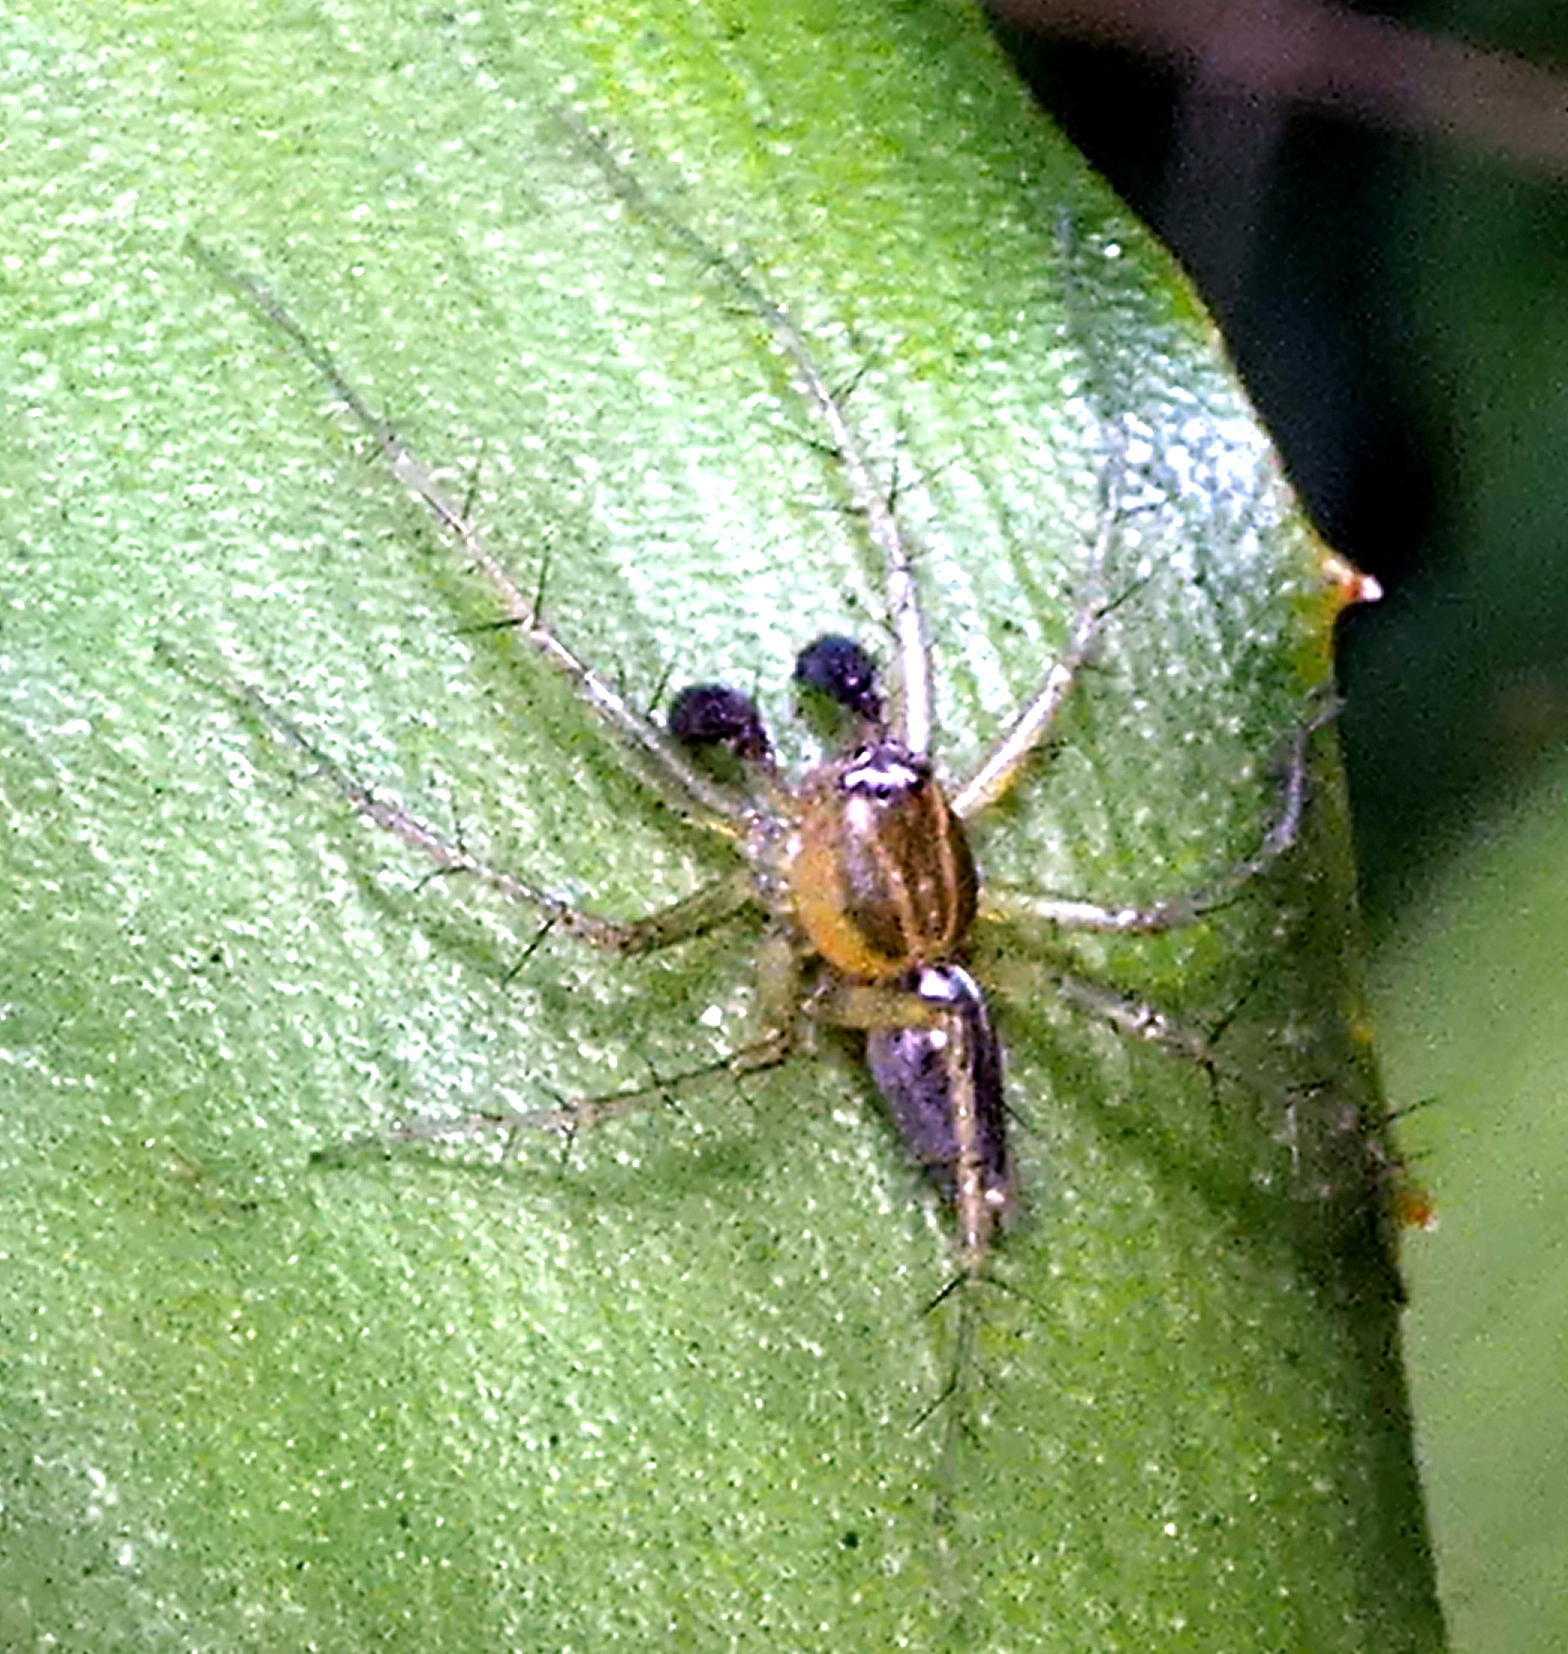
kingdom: Animalia
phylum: Arthropoda
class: Arachnida
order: Araneae
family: Oxyopidae
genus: Oxyopes
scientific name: Oxyopes salticus
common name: Lynx spiders
